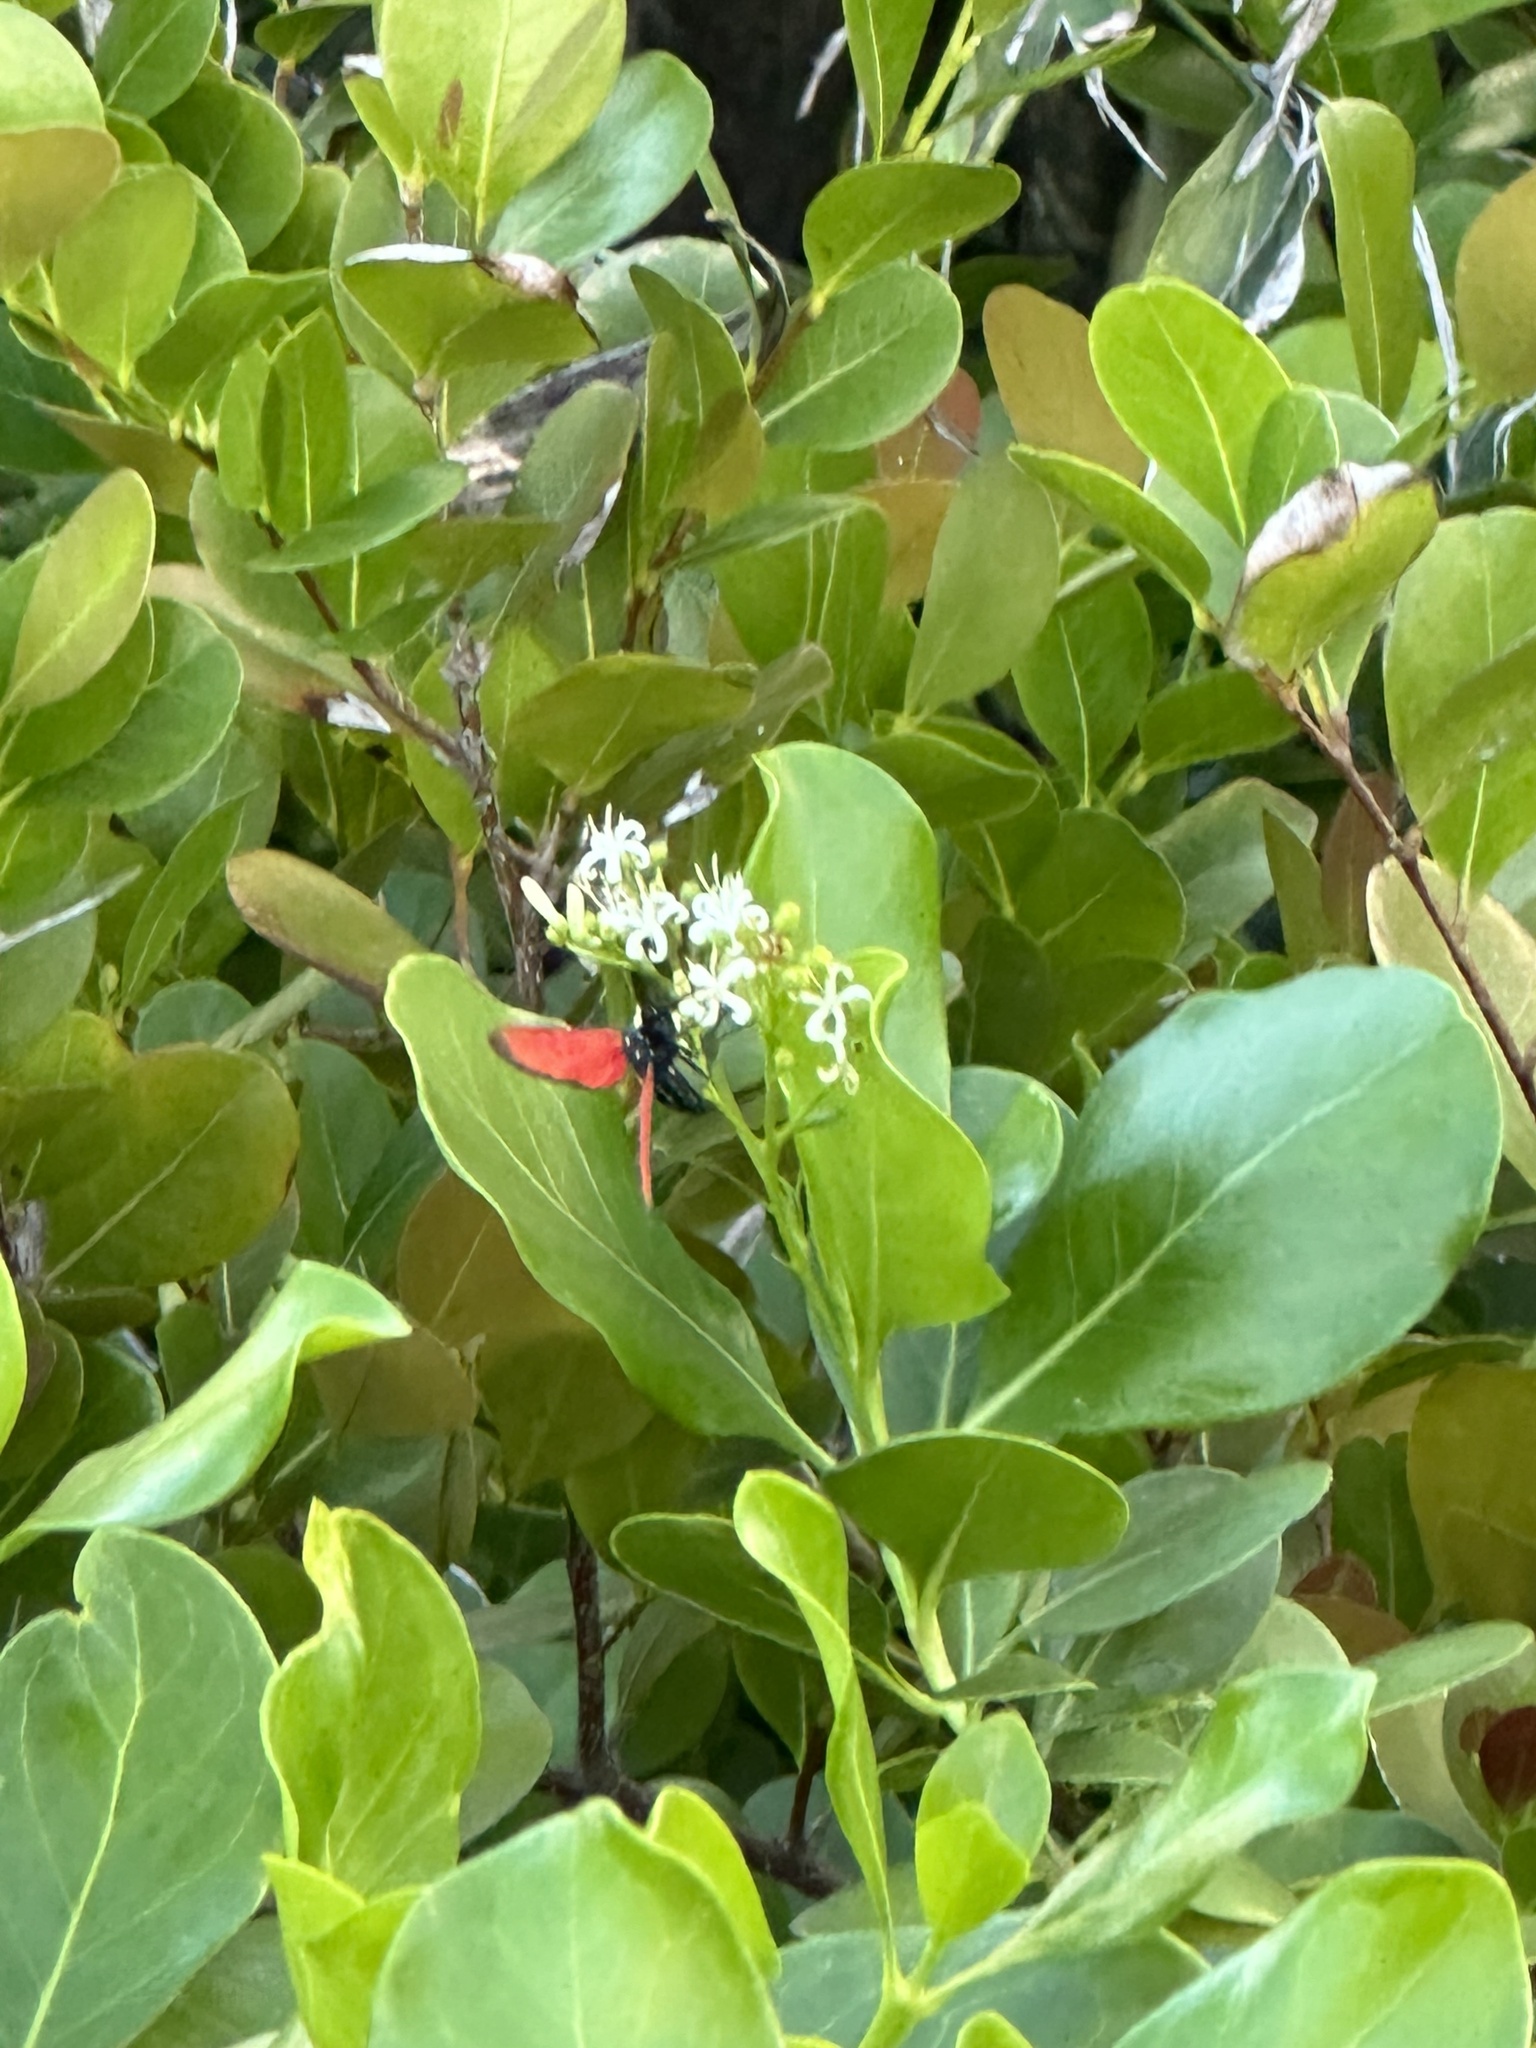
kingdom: Animalia
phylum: Arthropoda
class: Insecta
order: Lepidoptera
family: Erebidae
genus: Empyreuma
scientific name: Empyreuma pugione
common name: Spotted oleander caterpillar moth
